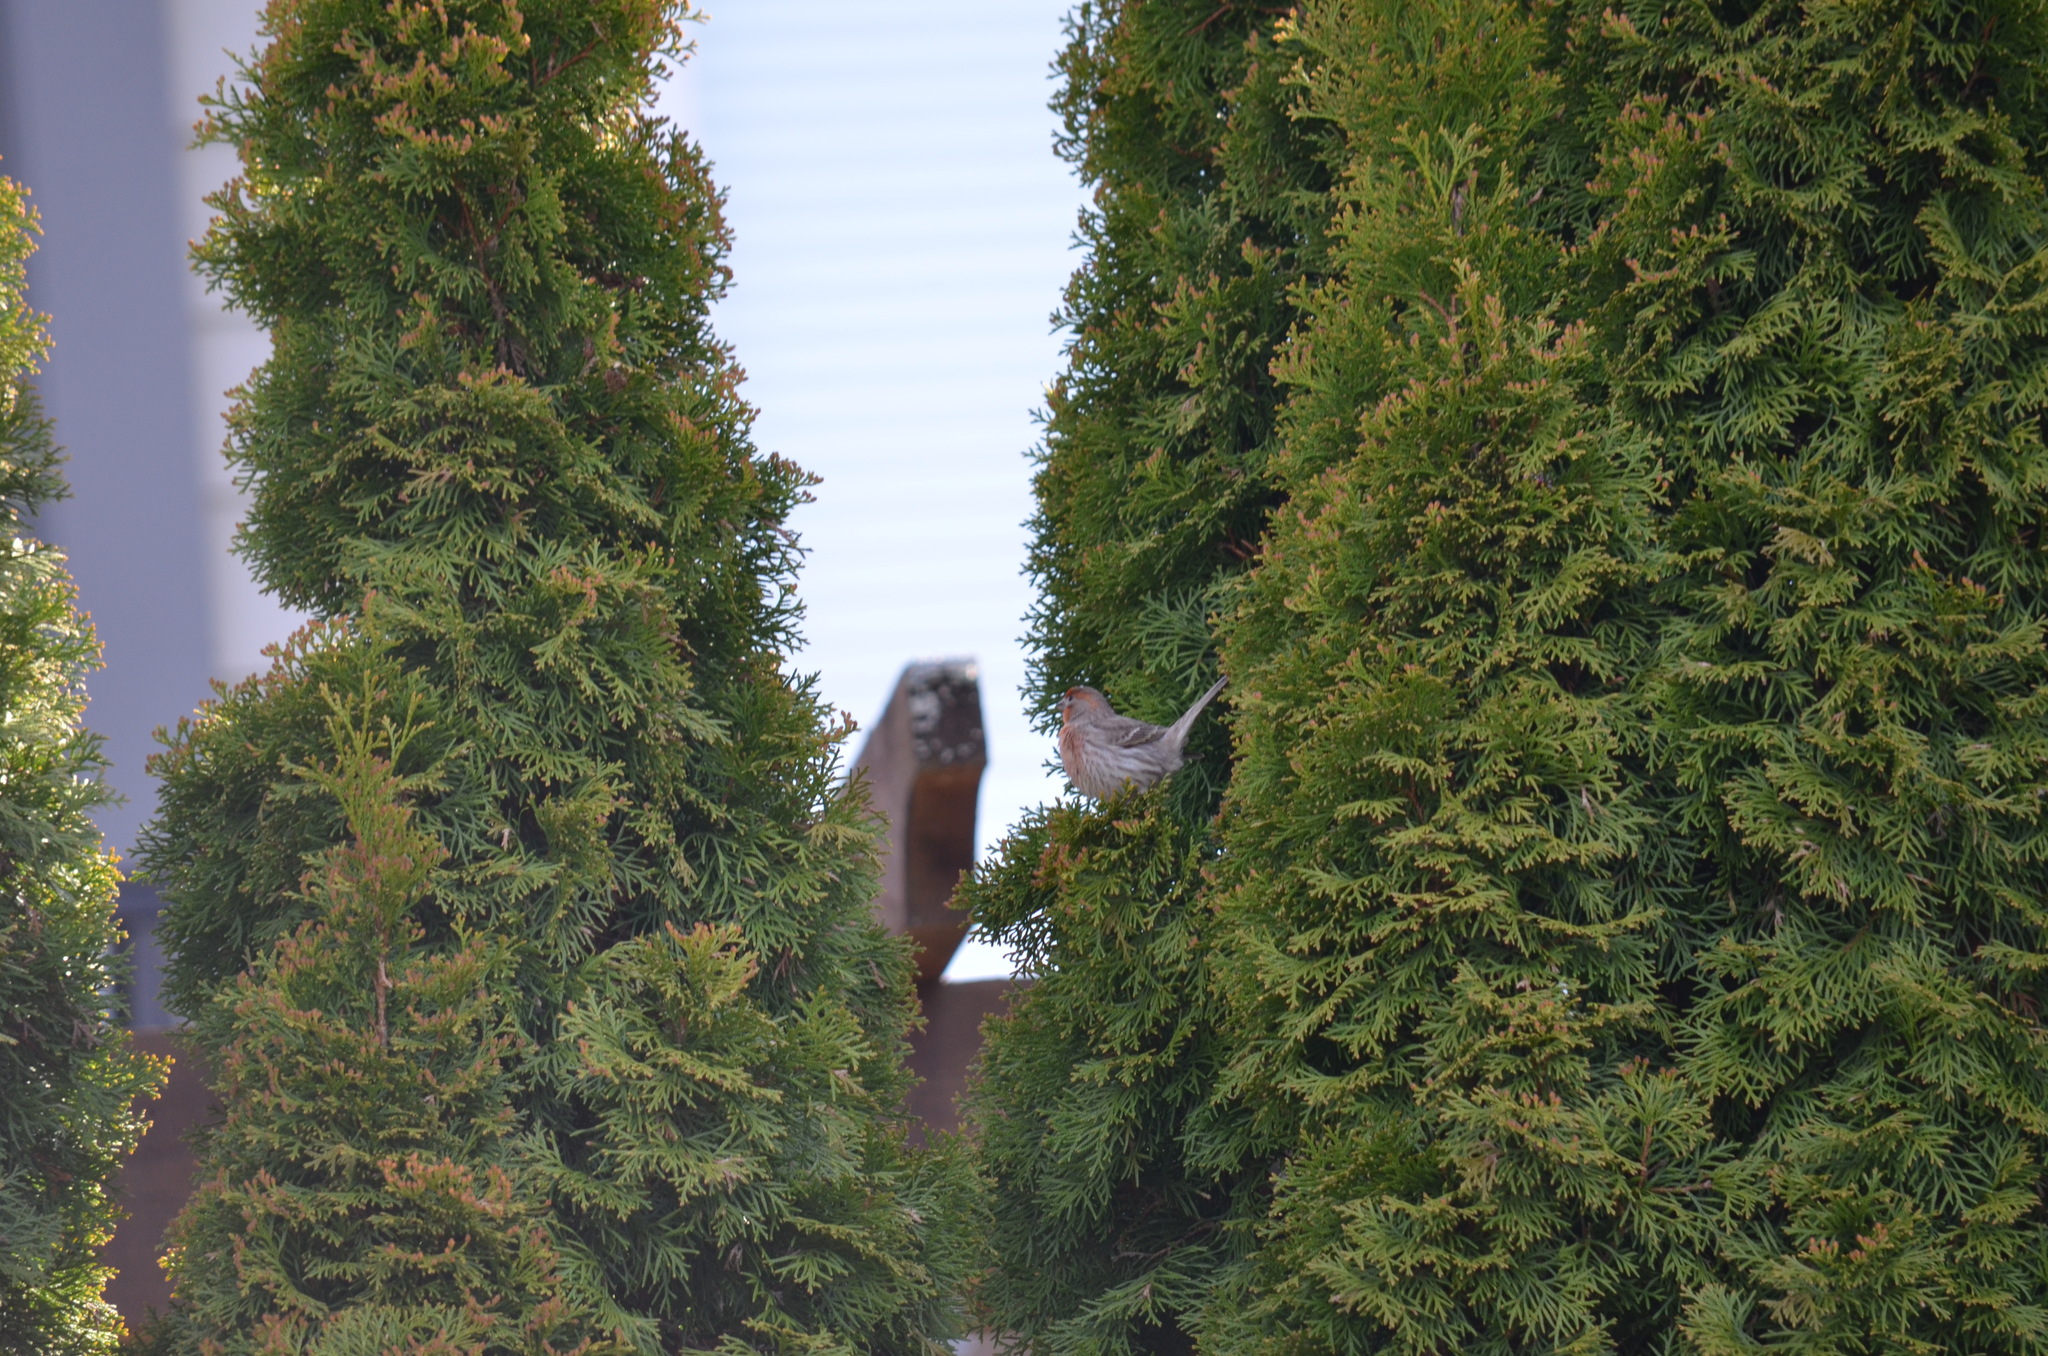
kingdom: Animalia
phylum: Chordata
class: Aves
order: Passeriformes
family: Fringillidae
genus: Haemorhous
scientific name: Haemorhous mexicanus
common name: House finch
